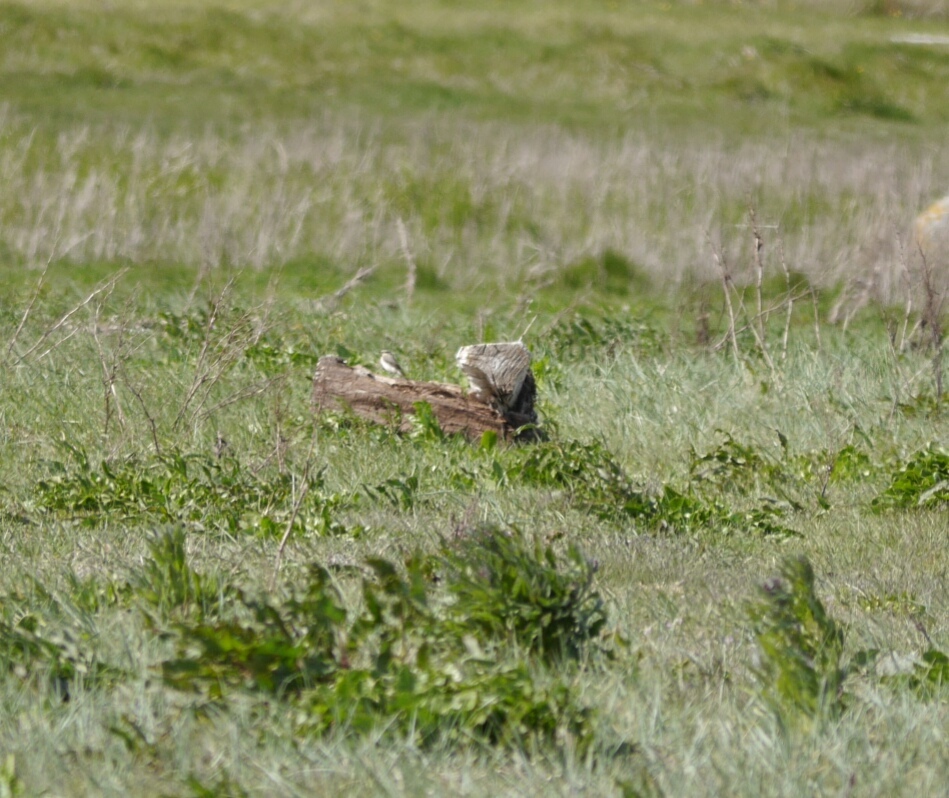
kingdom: Animalia
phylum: Chordata
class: Aves
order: Passeriformes
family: Muscicapidae
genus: Oenanthe
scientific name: Oenanthe oenanthe
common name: Northern wheatear
